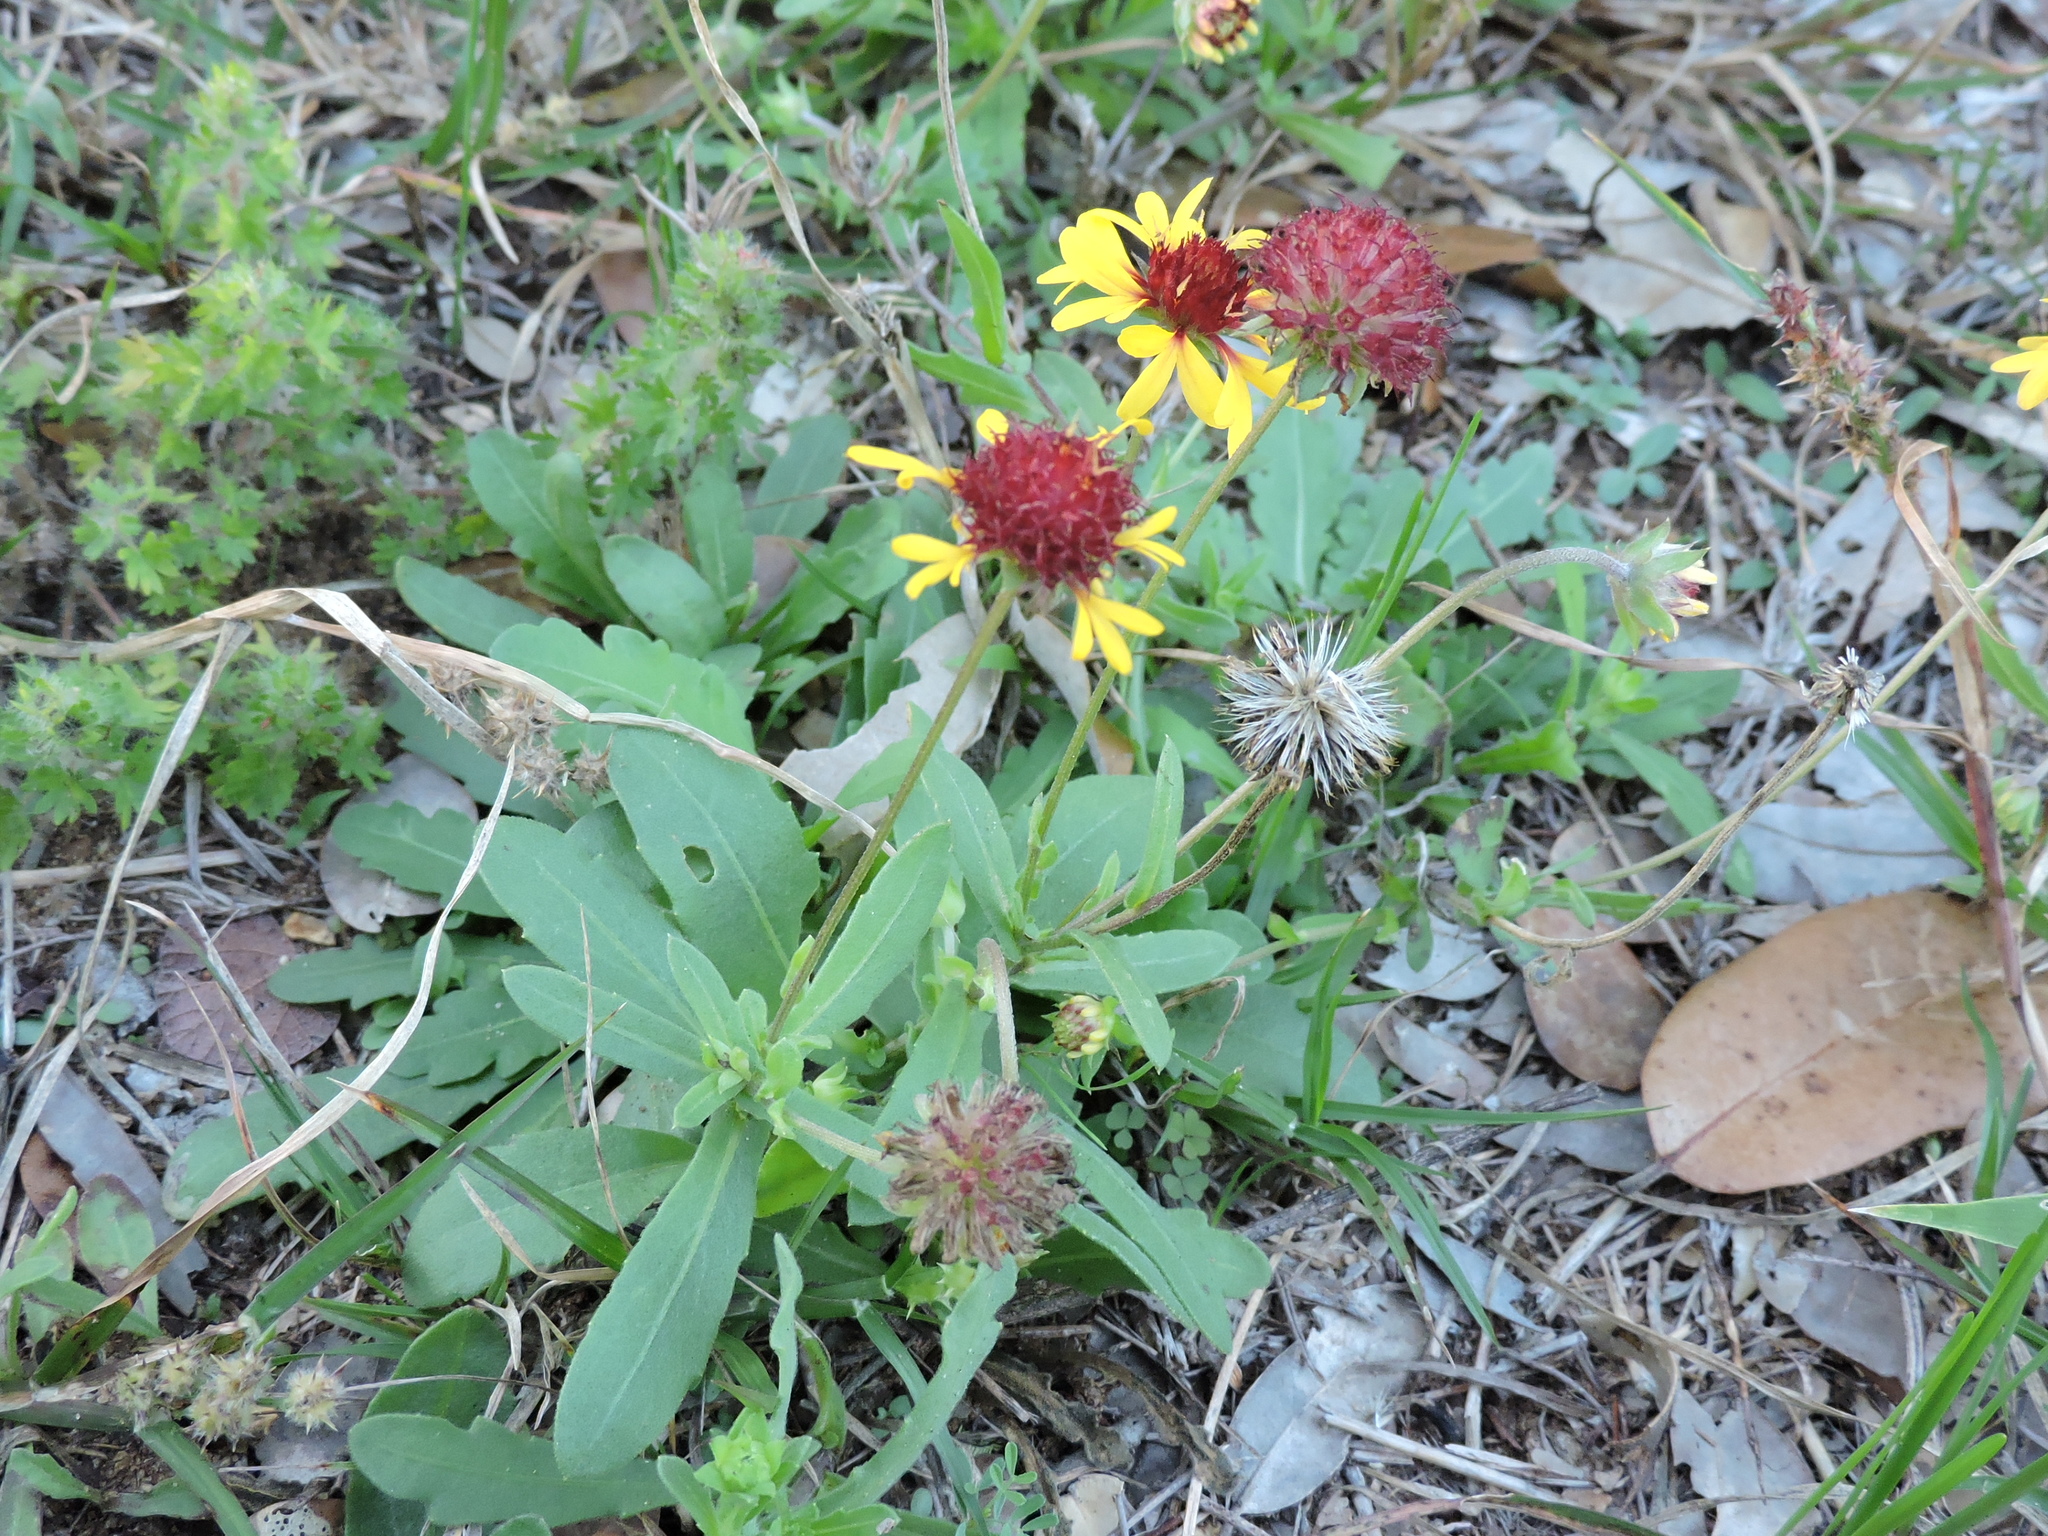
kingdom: Plantae
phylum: Tracheophyta
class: Magnoliopsida
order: Asterales
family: Asteraceae
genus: Gaillardia
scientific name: Gaillardia aestivalis
